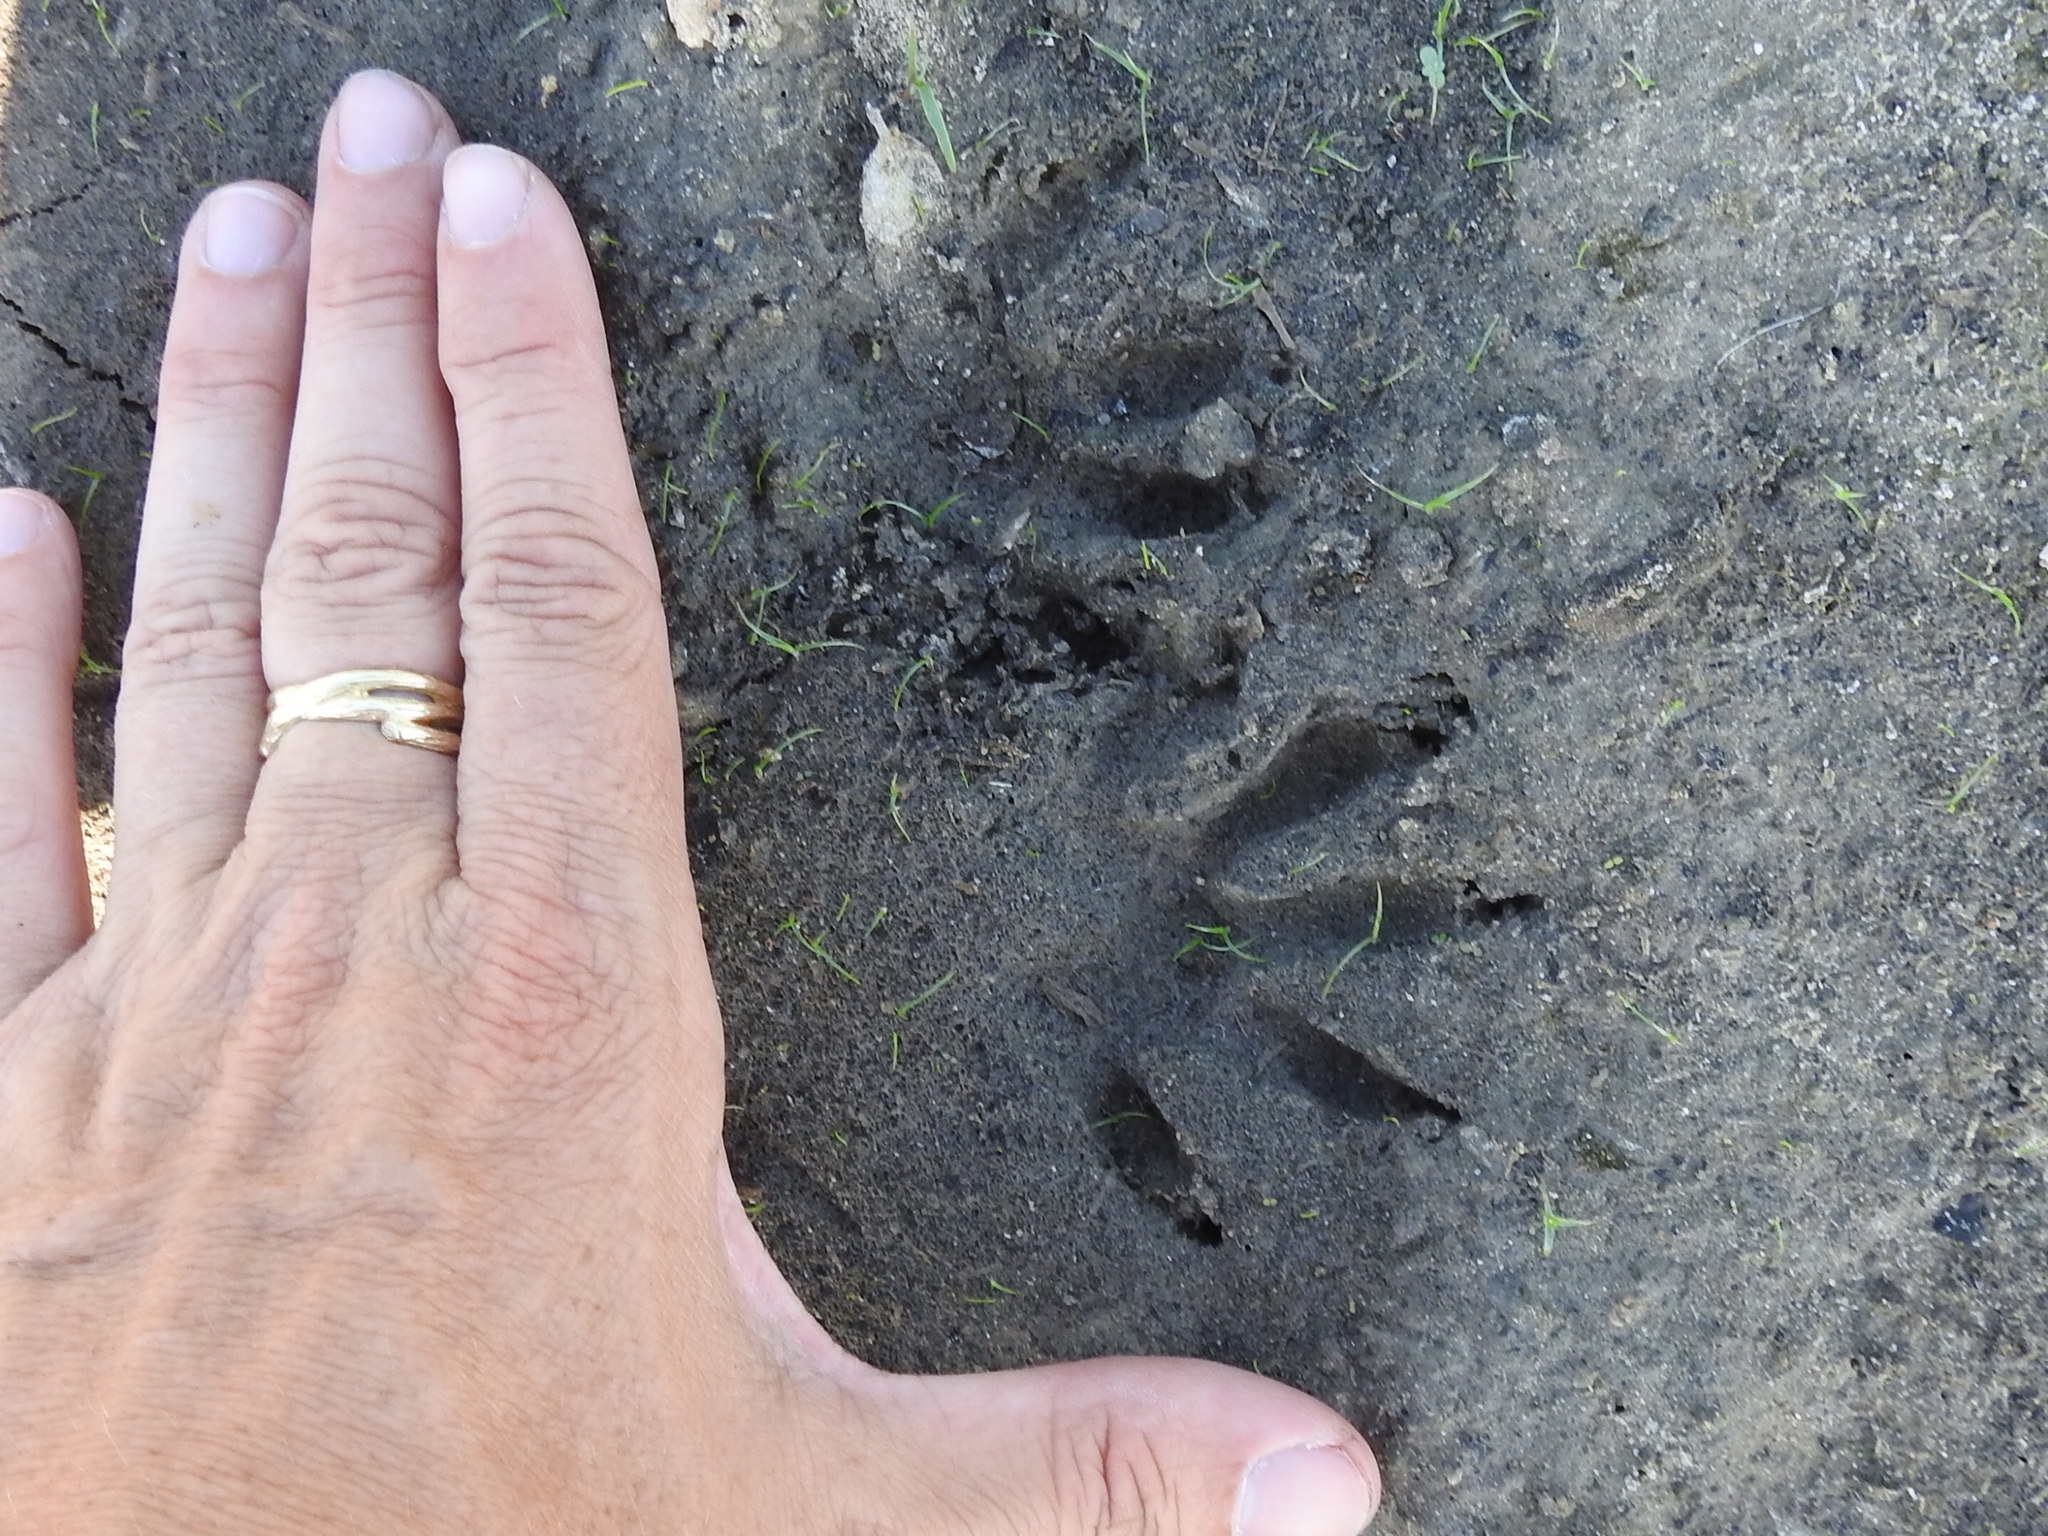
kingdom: Animalia
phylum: Chordata
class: Mammalia
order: Carnivora
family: Procyonidae
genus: Procyon
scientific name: Procyon lotor
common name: Raccoon
